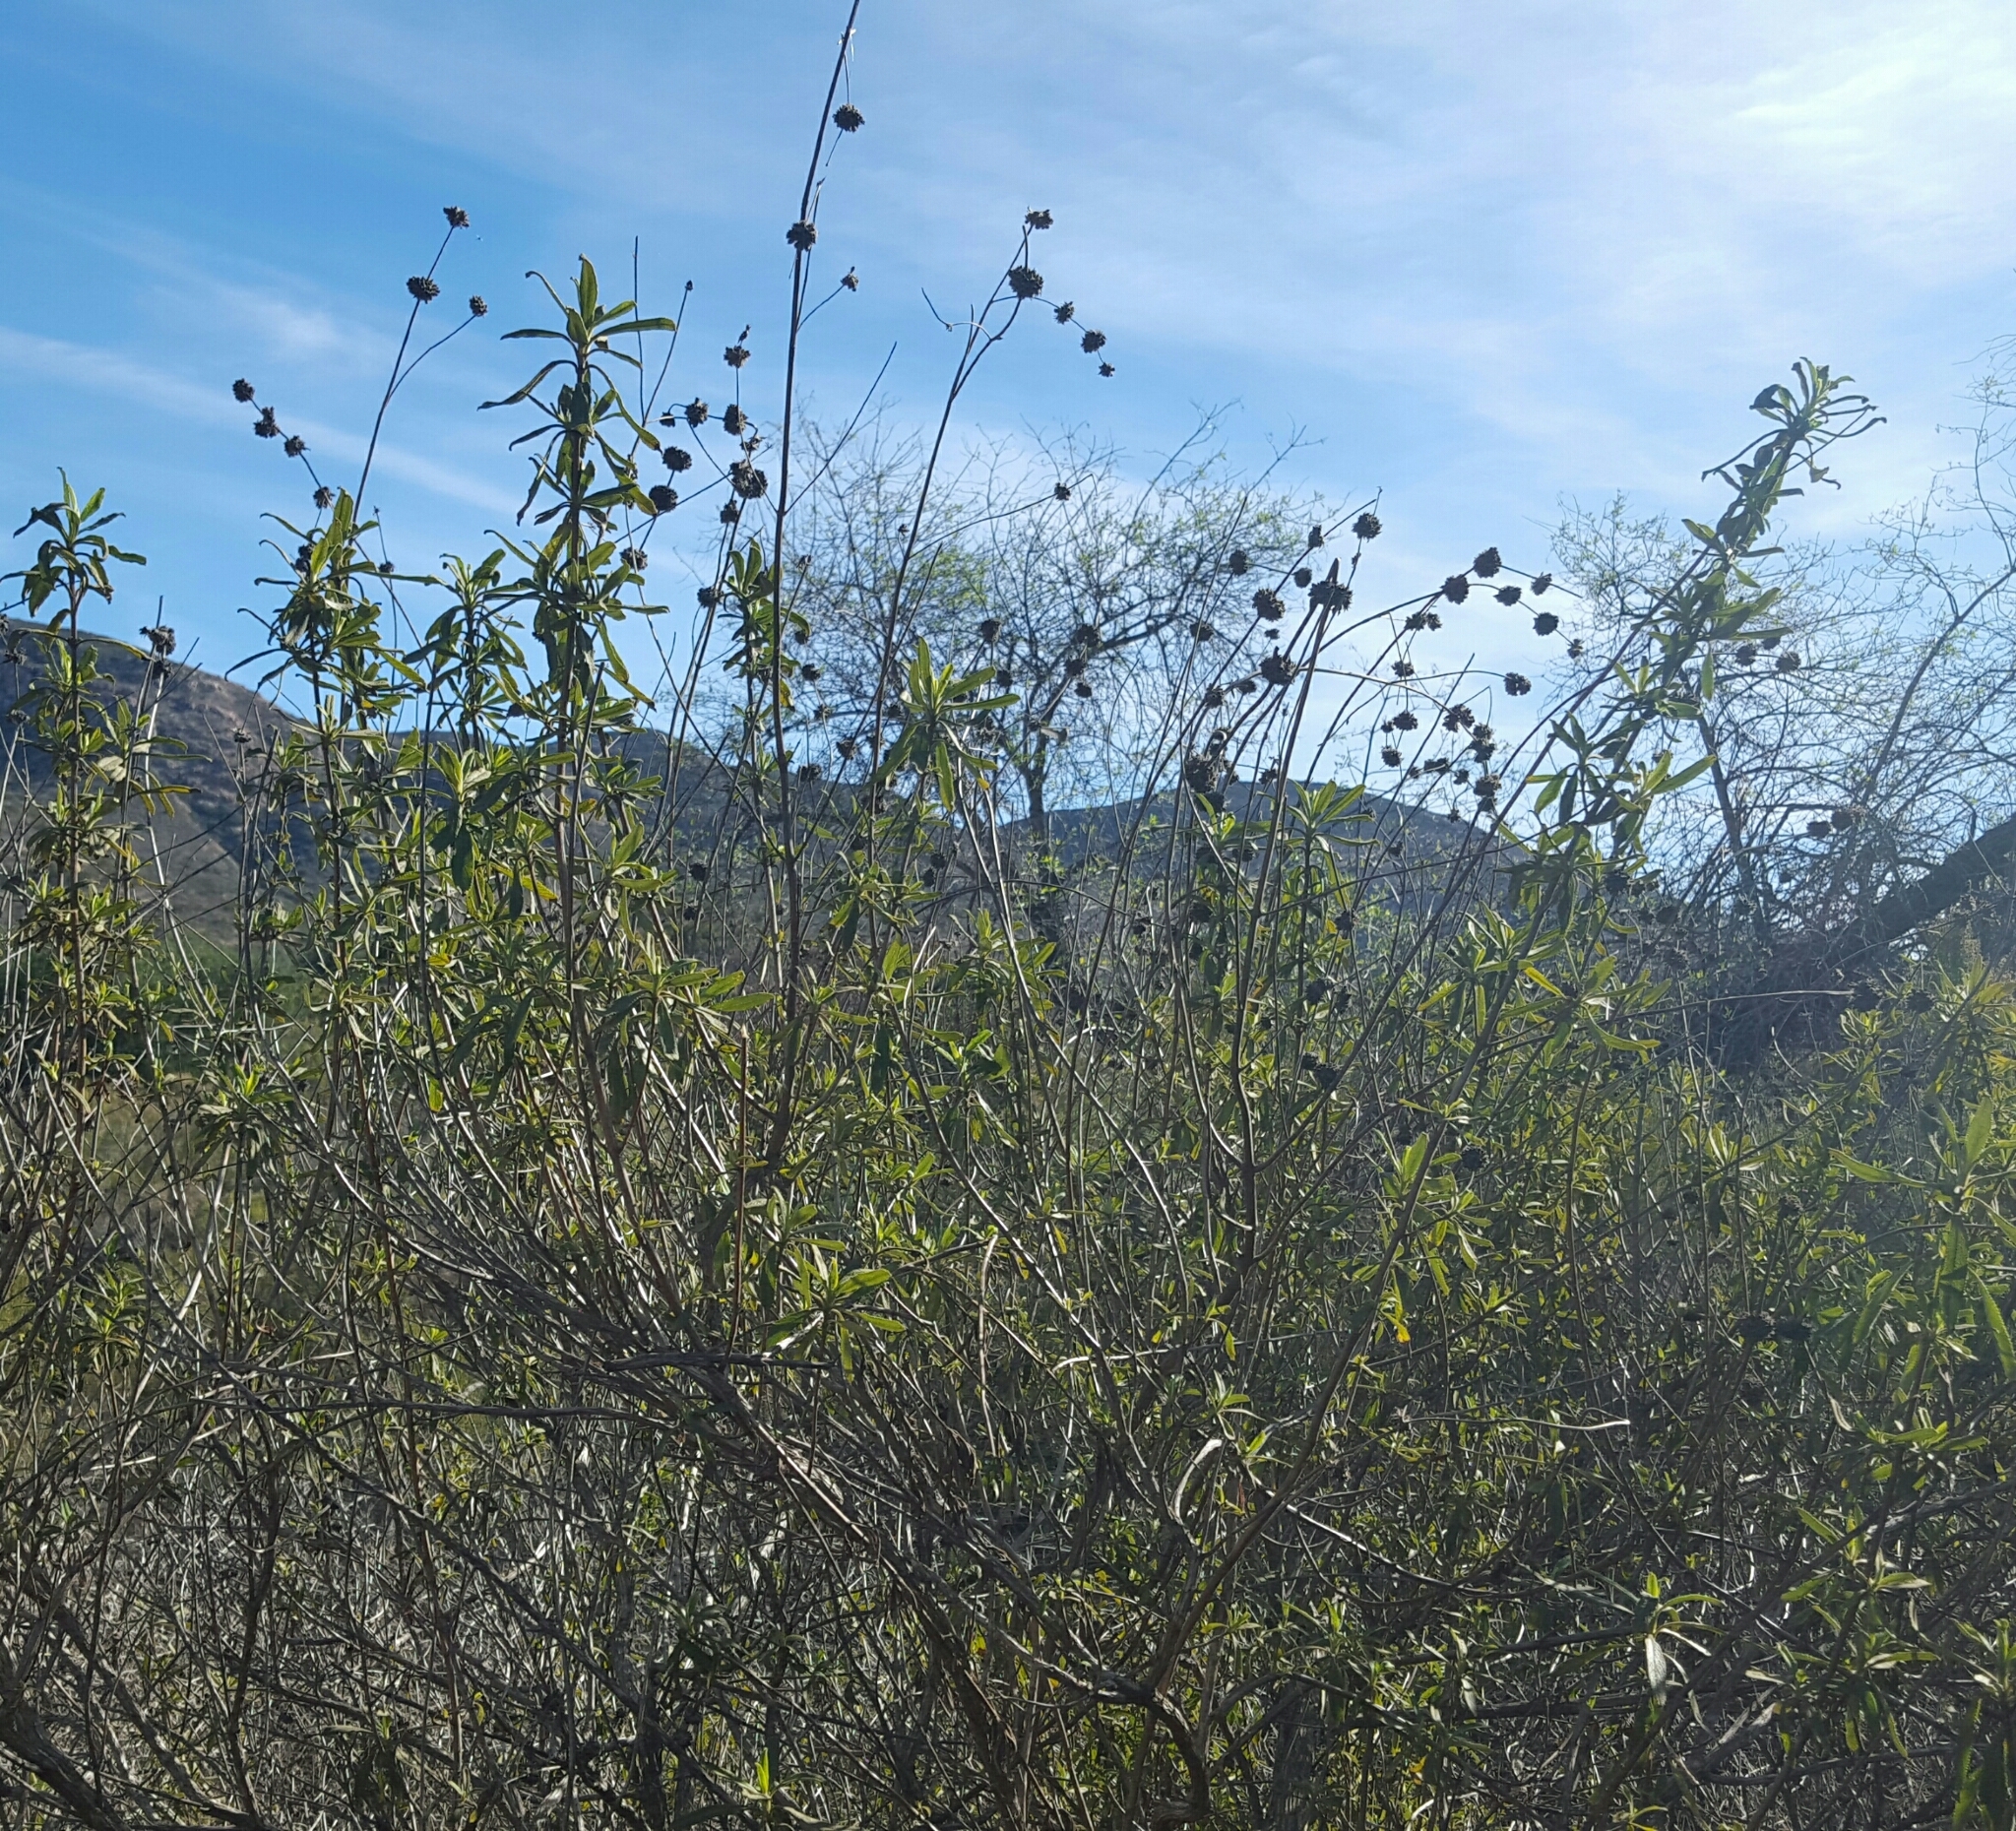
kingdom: Plantae
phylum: Tracheophyta
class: Magnoliopsida
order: Lamiales
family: Lamiaceae
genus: Salvia
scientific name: Salvia mellifera
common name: Black sage
